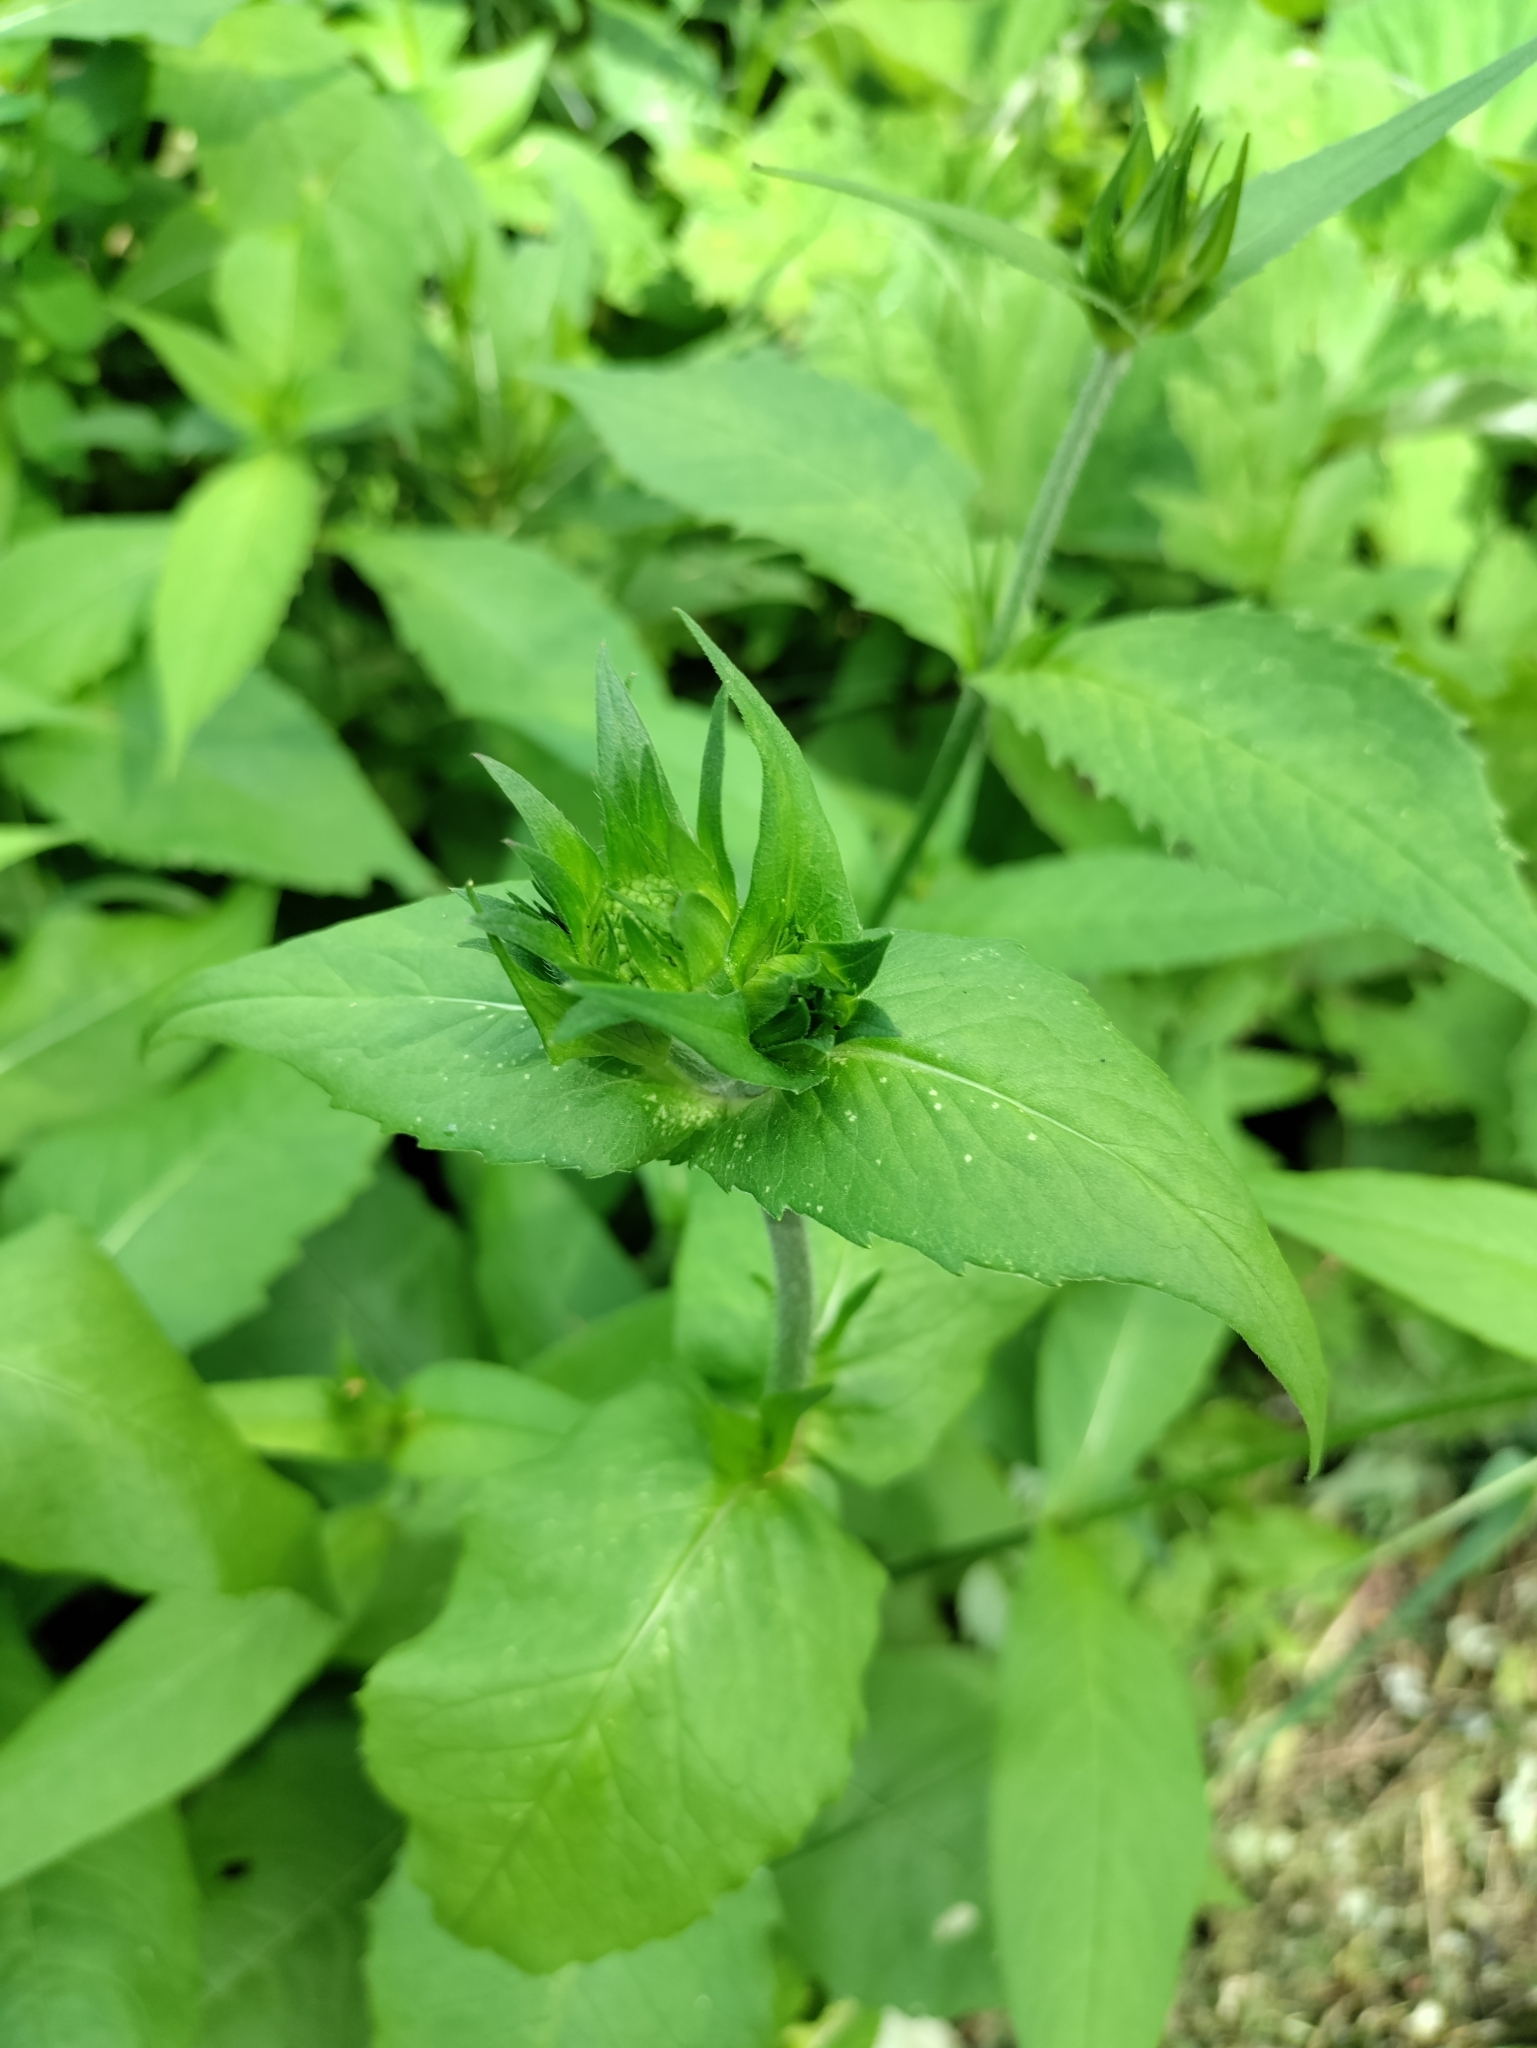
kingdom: Plantae
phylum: Tracheophyta
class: Magnoliopsida
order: Dipsacales
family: Caprifoliaceae
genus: Knautia
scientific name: Knautia dipsacifolia
